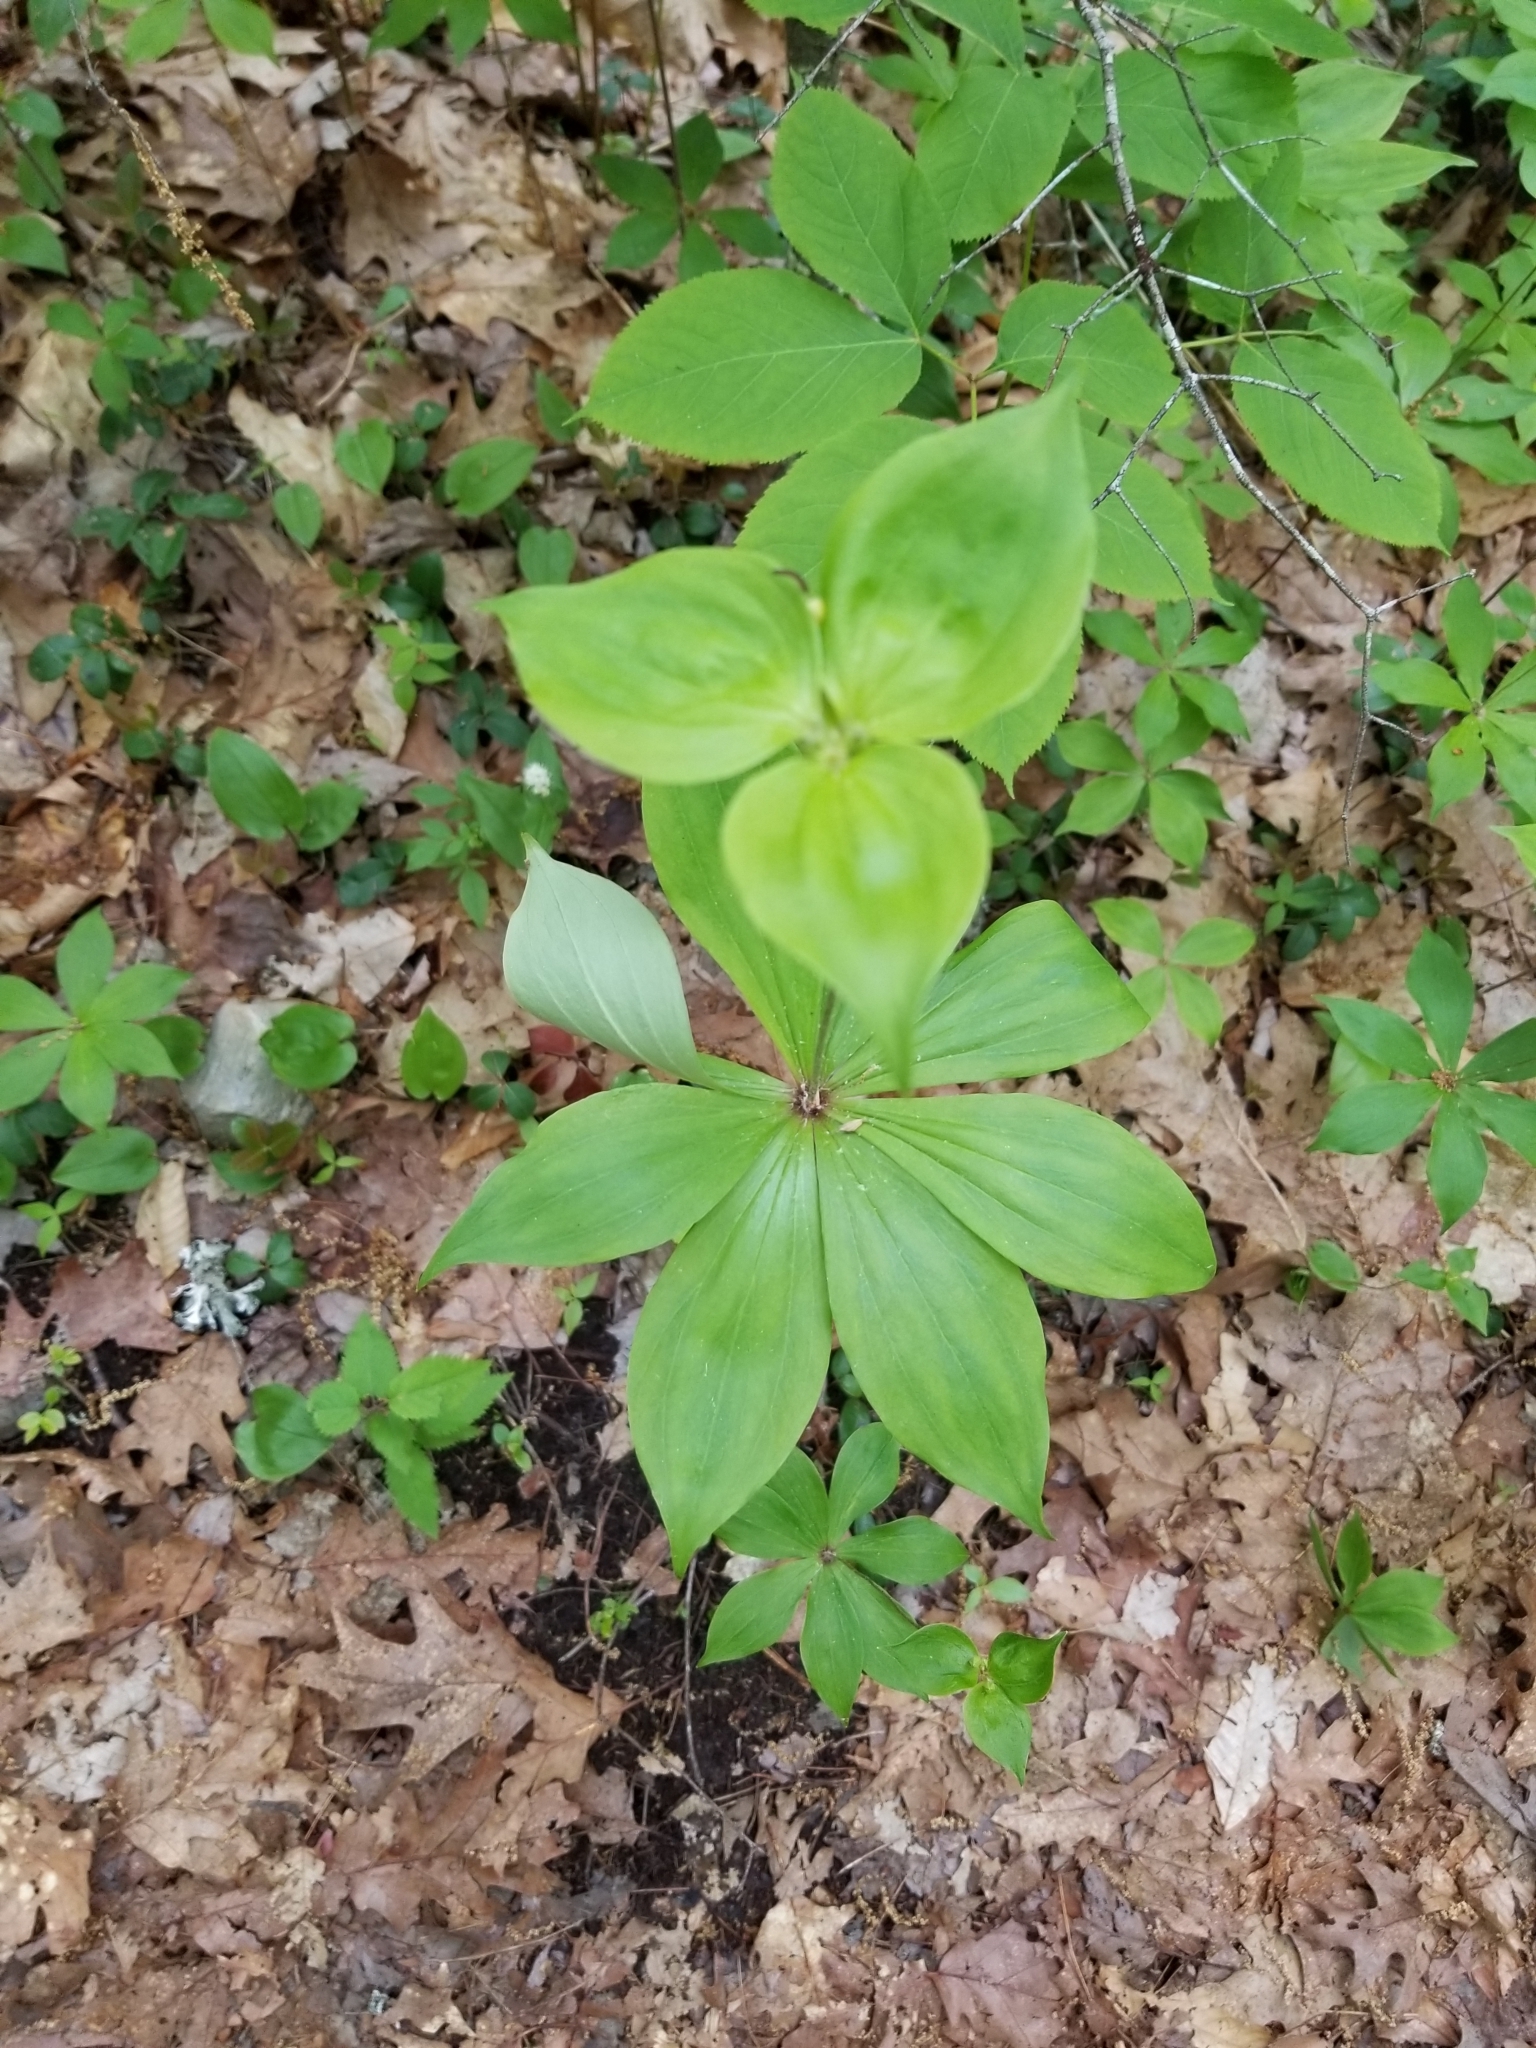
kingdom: Plantae
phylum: Tracheophyta
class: Liliopsida
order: Liliales
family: Liliaceae
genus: Medeola
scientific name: Medeola virginiana
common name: Indian cucumber-root
